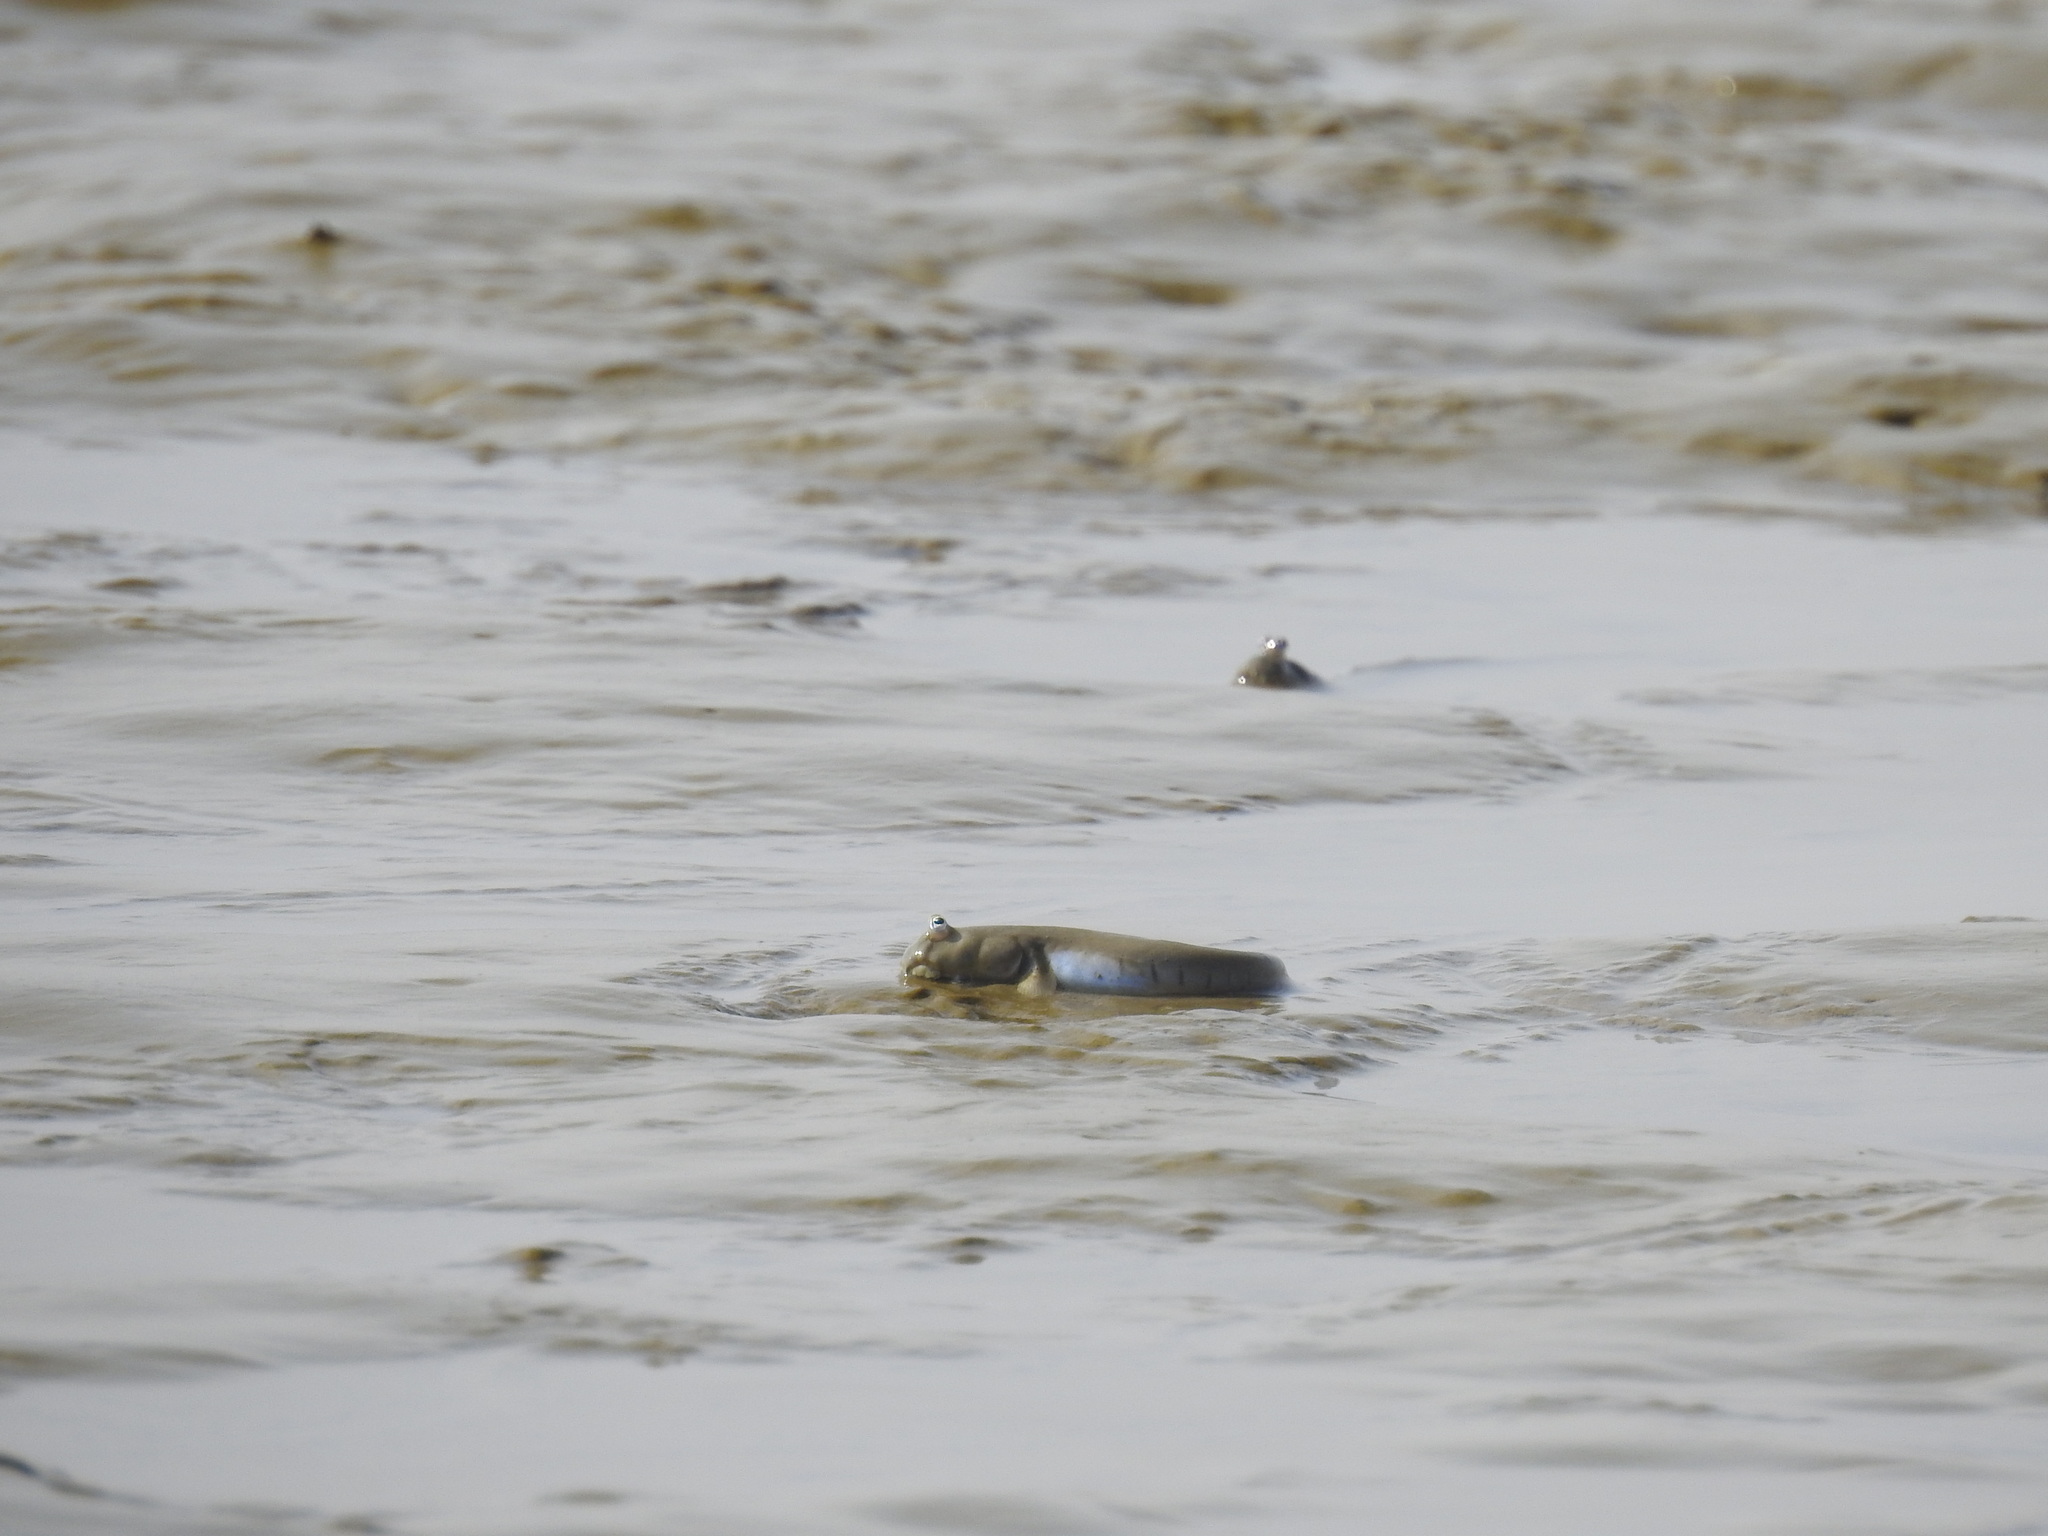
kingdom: Animalia
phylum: Chordata
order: Perciformes
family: Gobiidae
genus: Scartelaos
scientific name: Scartelaos histophorus
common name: Walking goby
